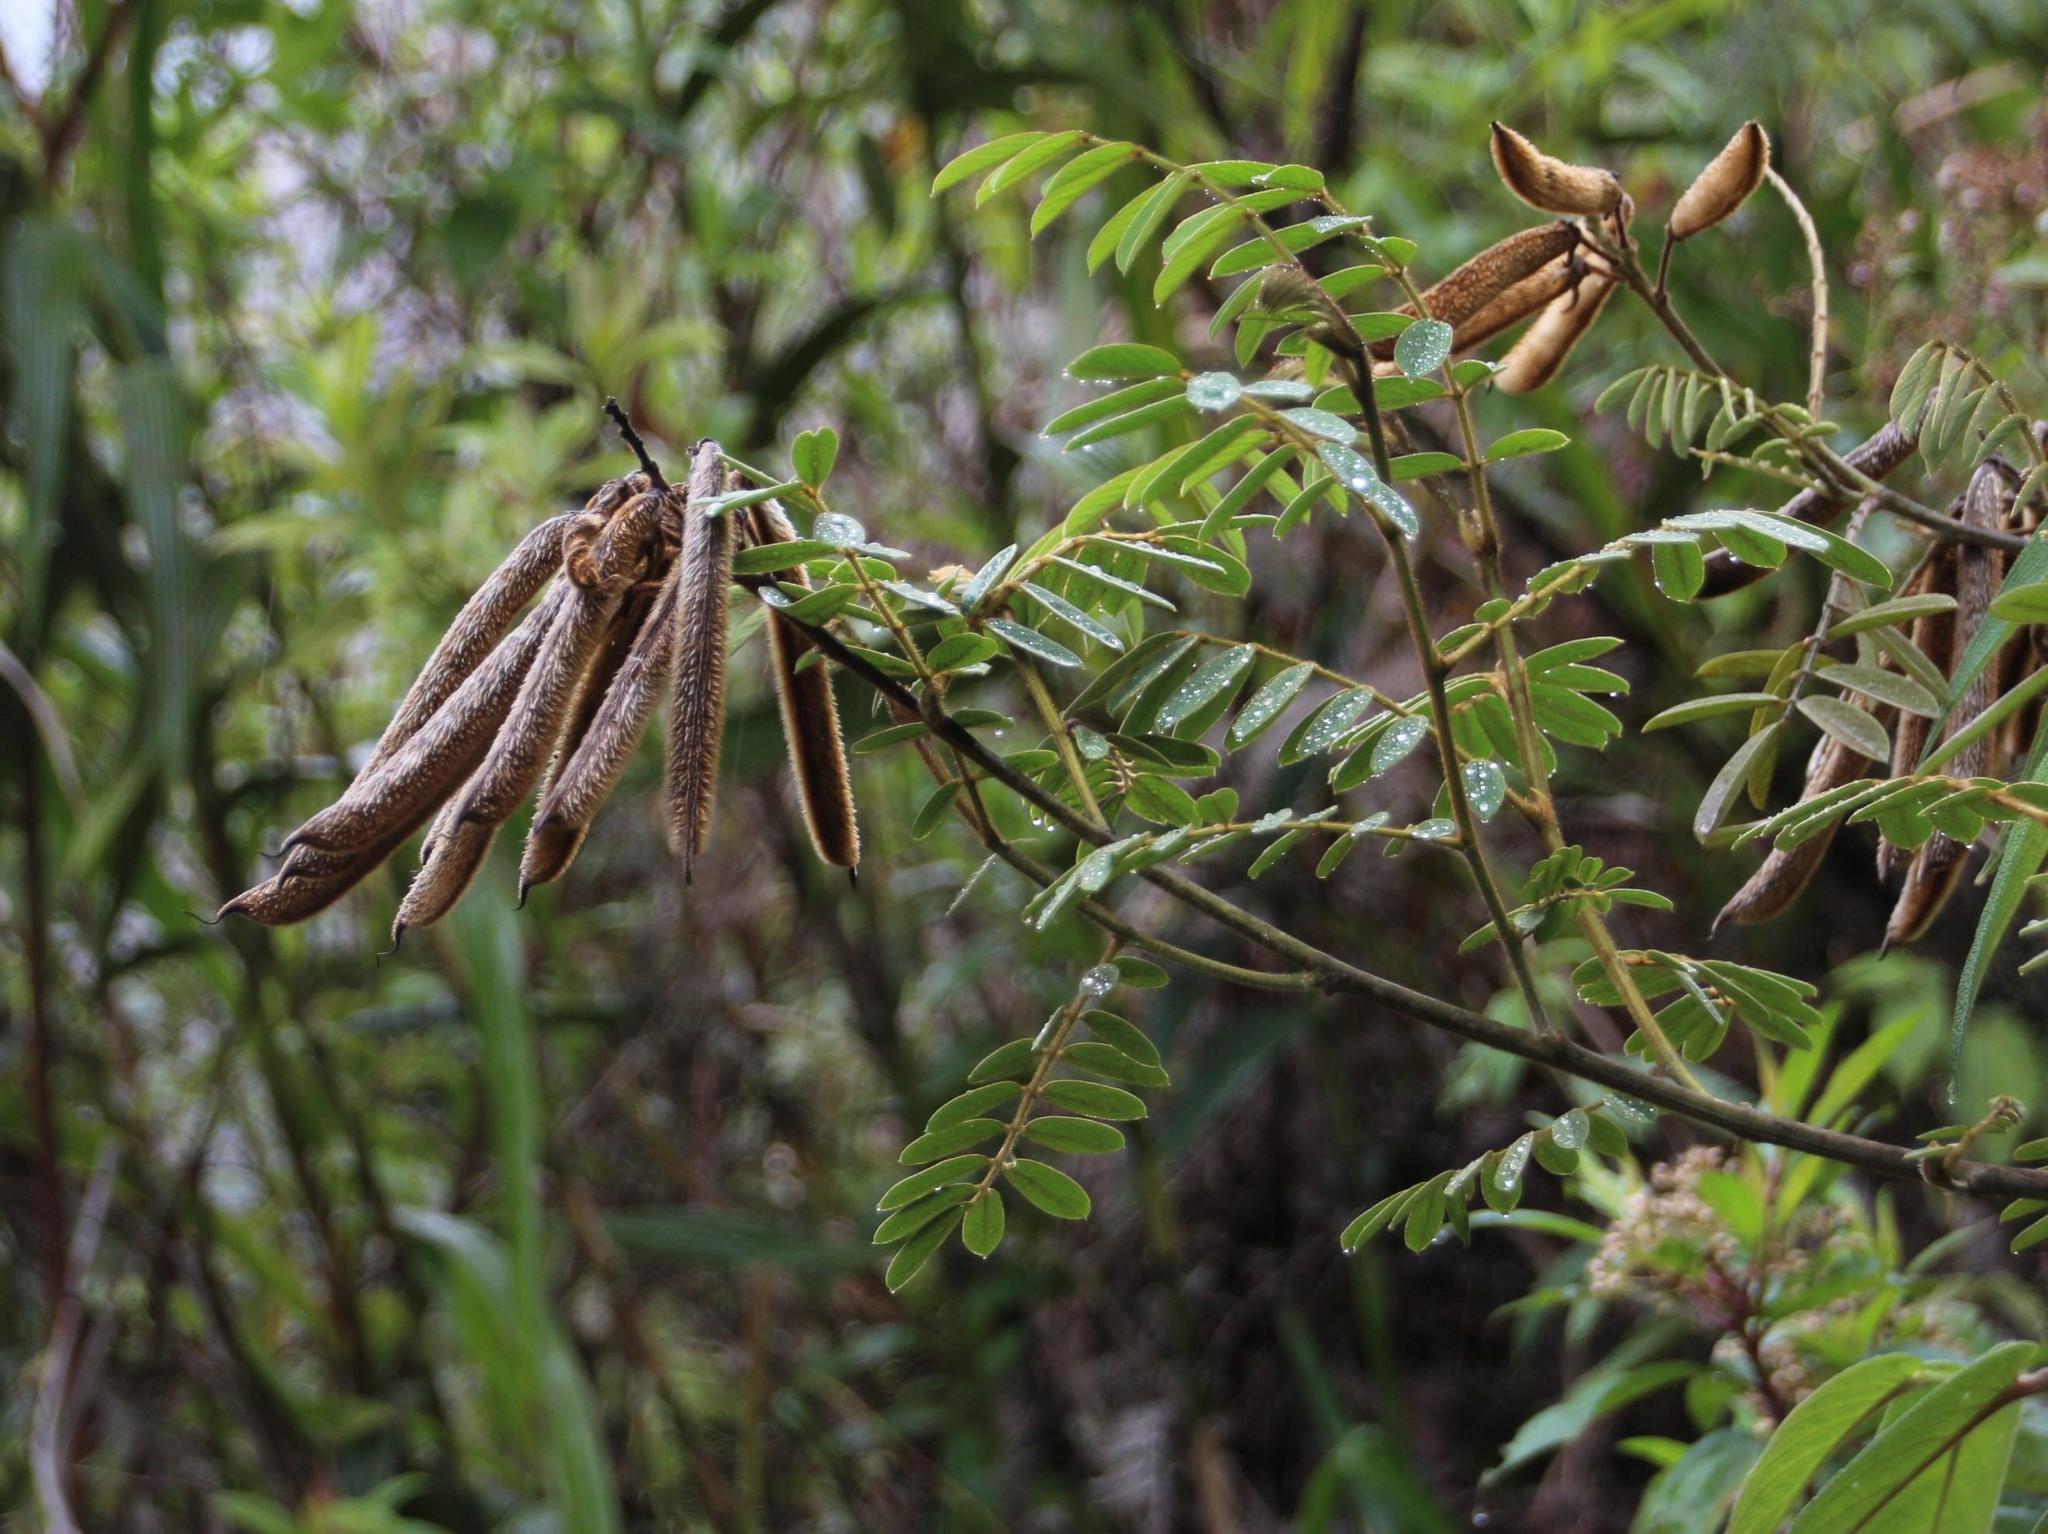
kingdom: Plantae
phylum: Tracheophyta
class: Magnoliopsida
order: Fabales
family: Fabaceae
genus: Apurimacia
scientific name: Apurimacia boliviana
